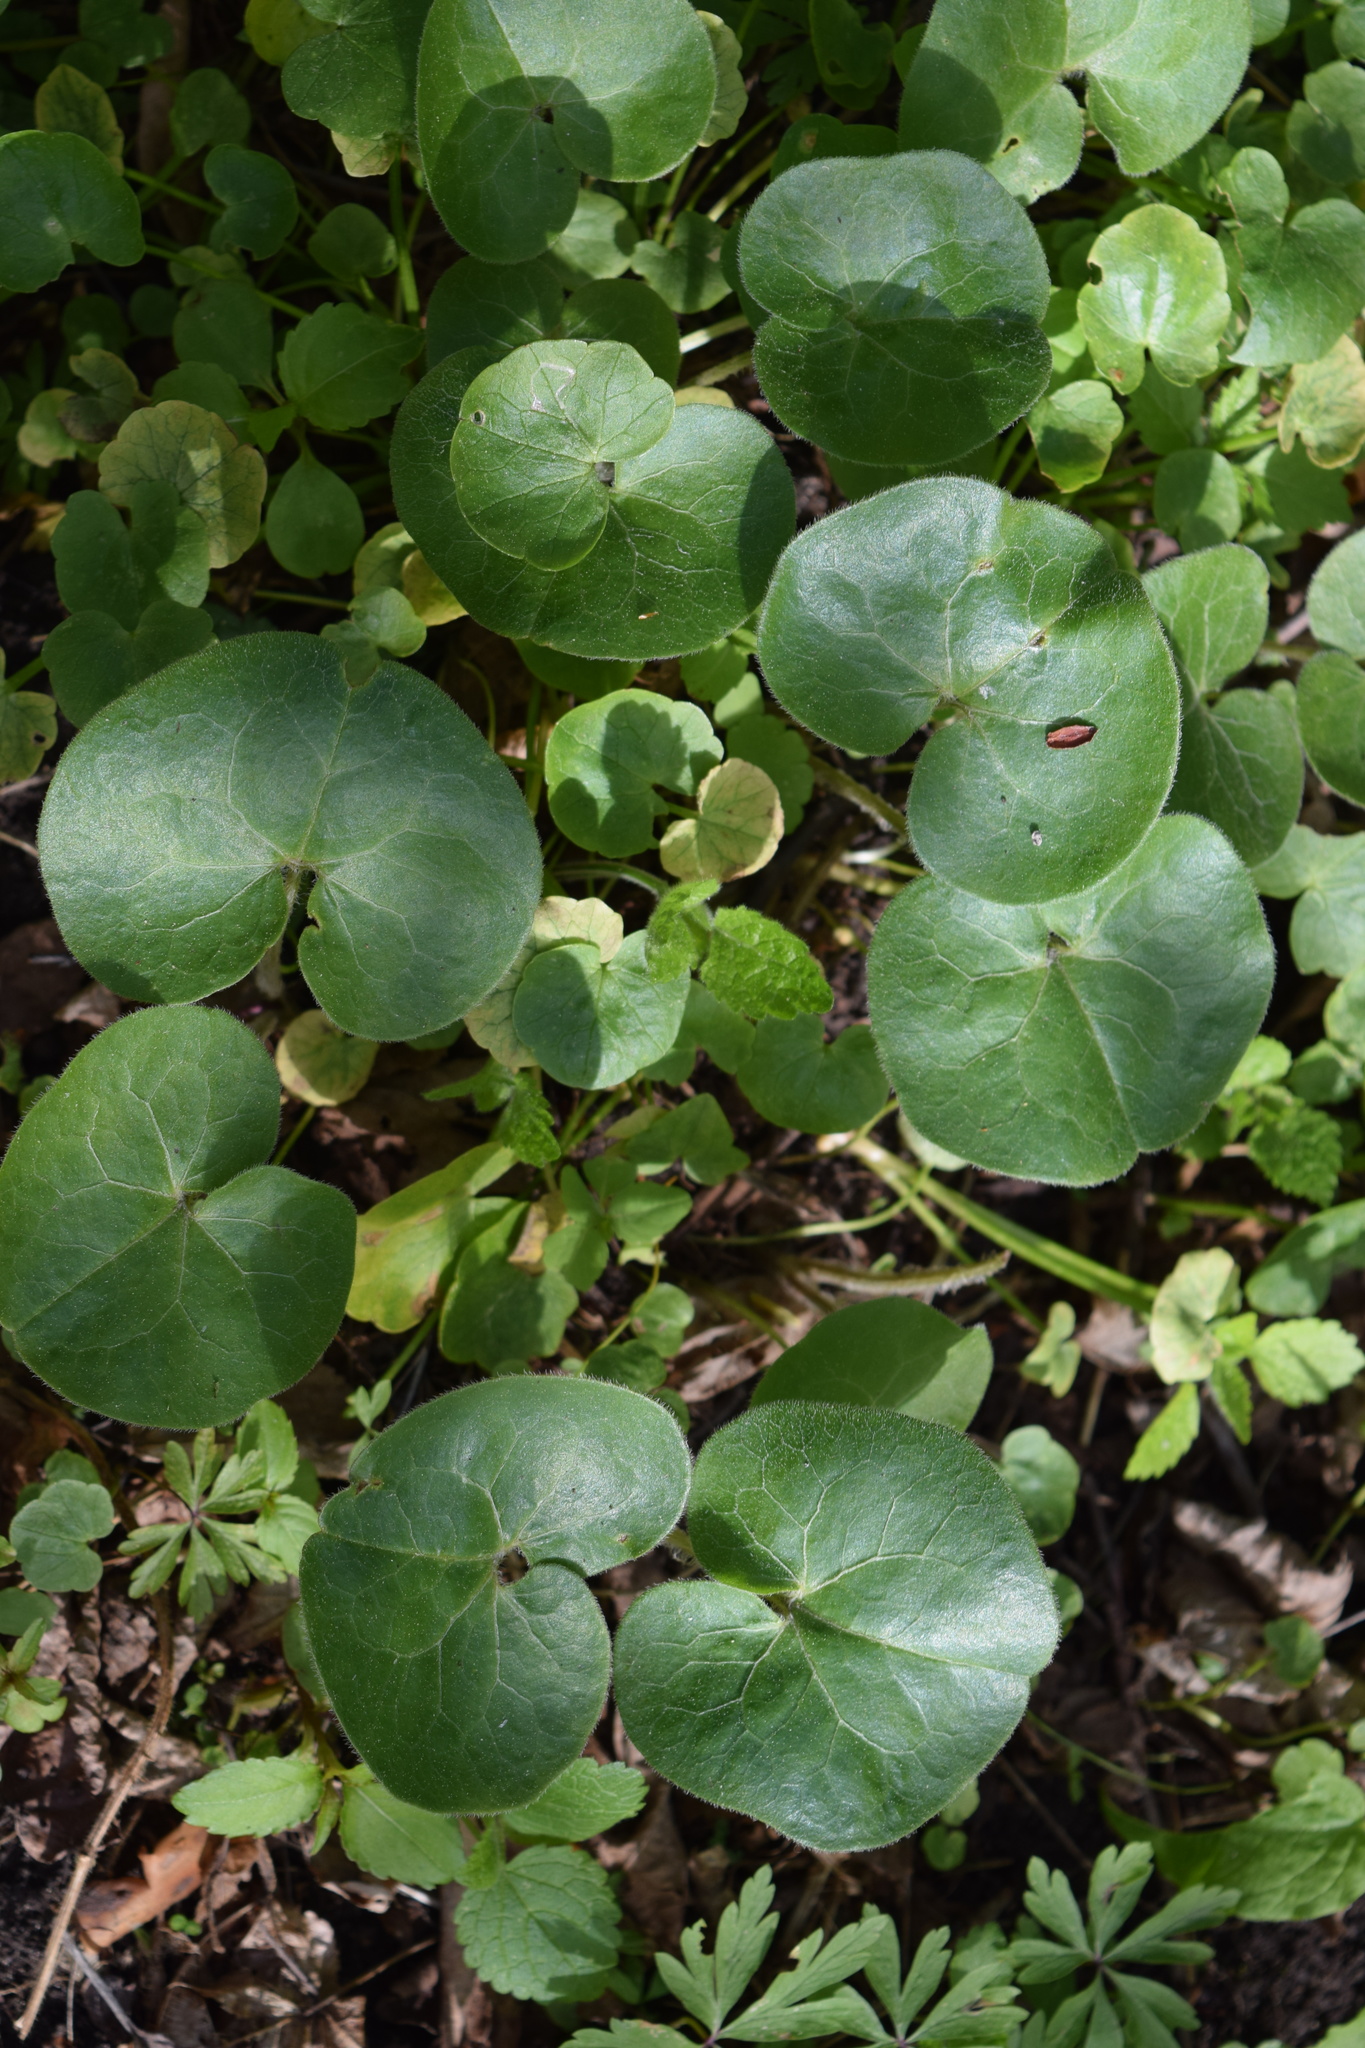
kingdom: Plantae
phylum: Tracheophyta
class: Magnoliopsida
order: Piperales
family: Aristolochiaceae
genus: Asarum
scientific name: Asarum europaeum
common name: Asarabacca
